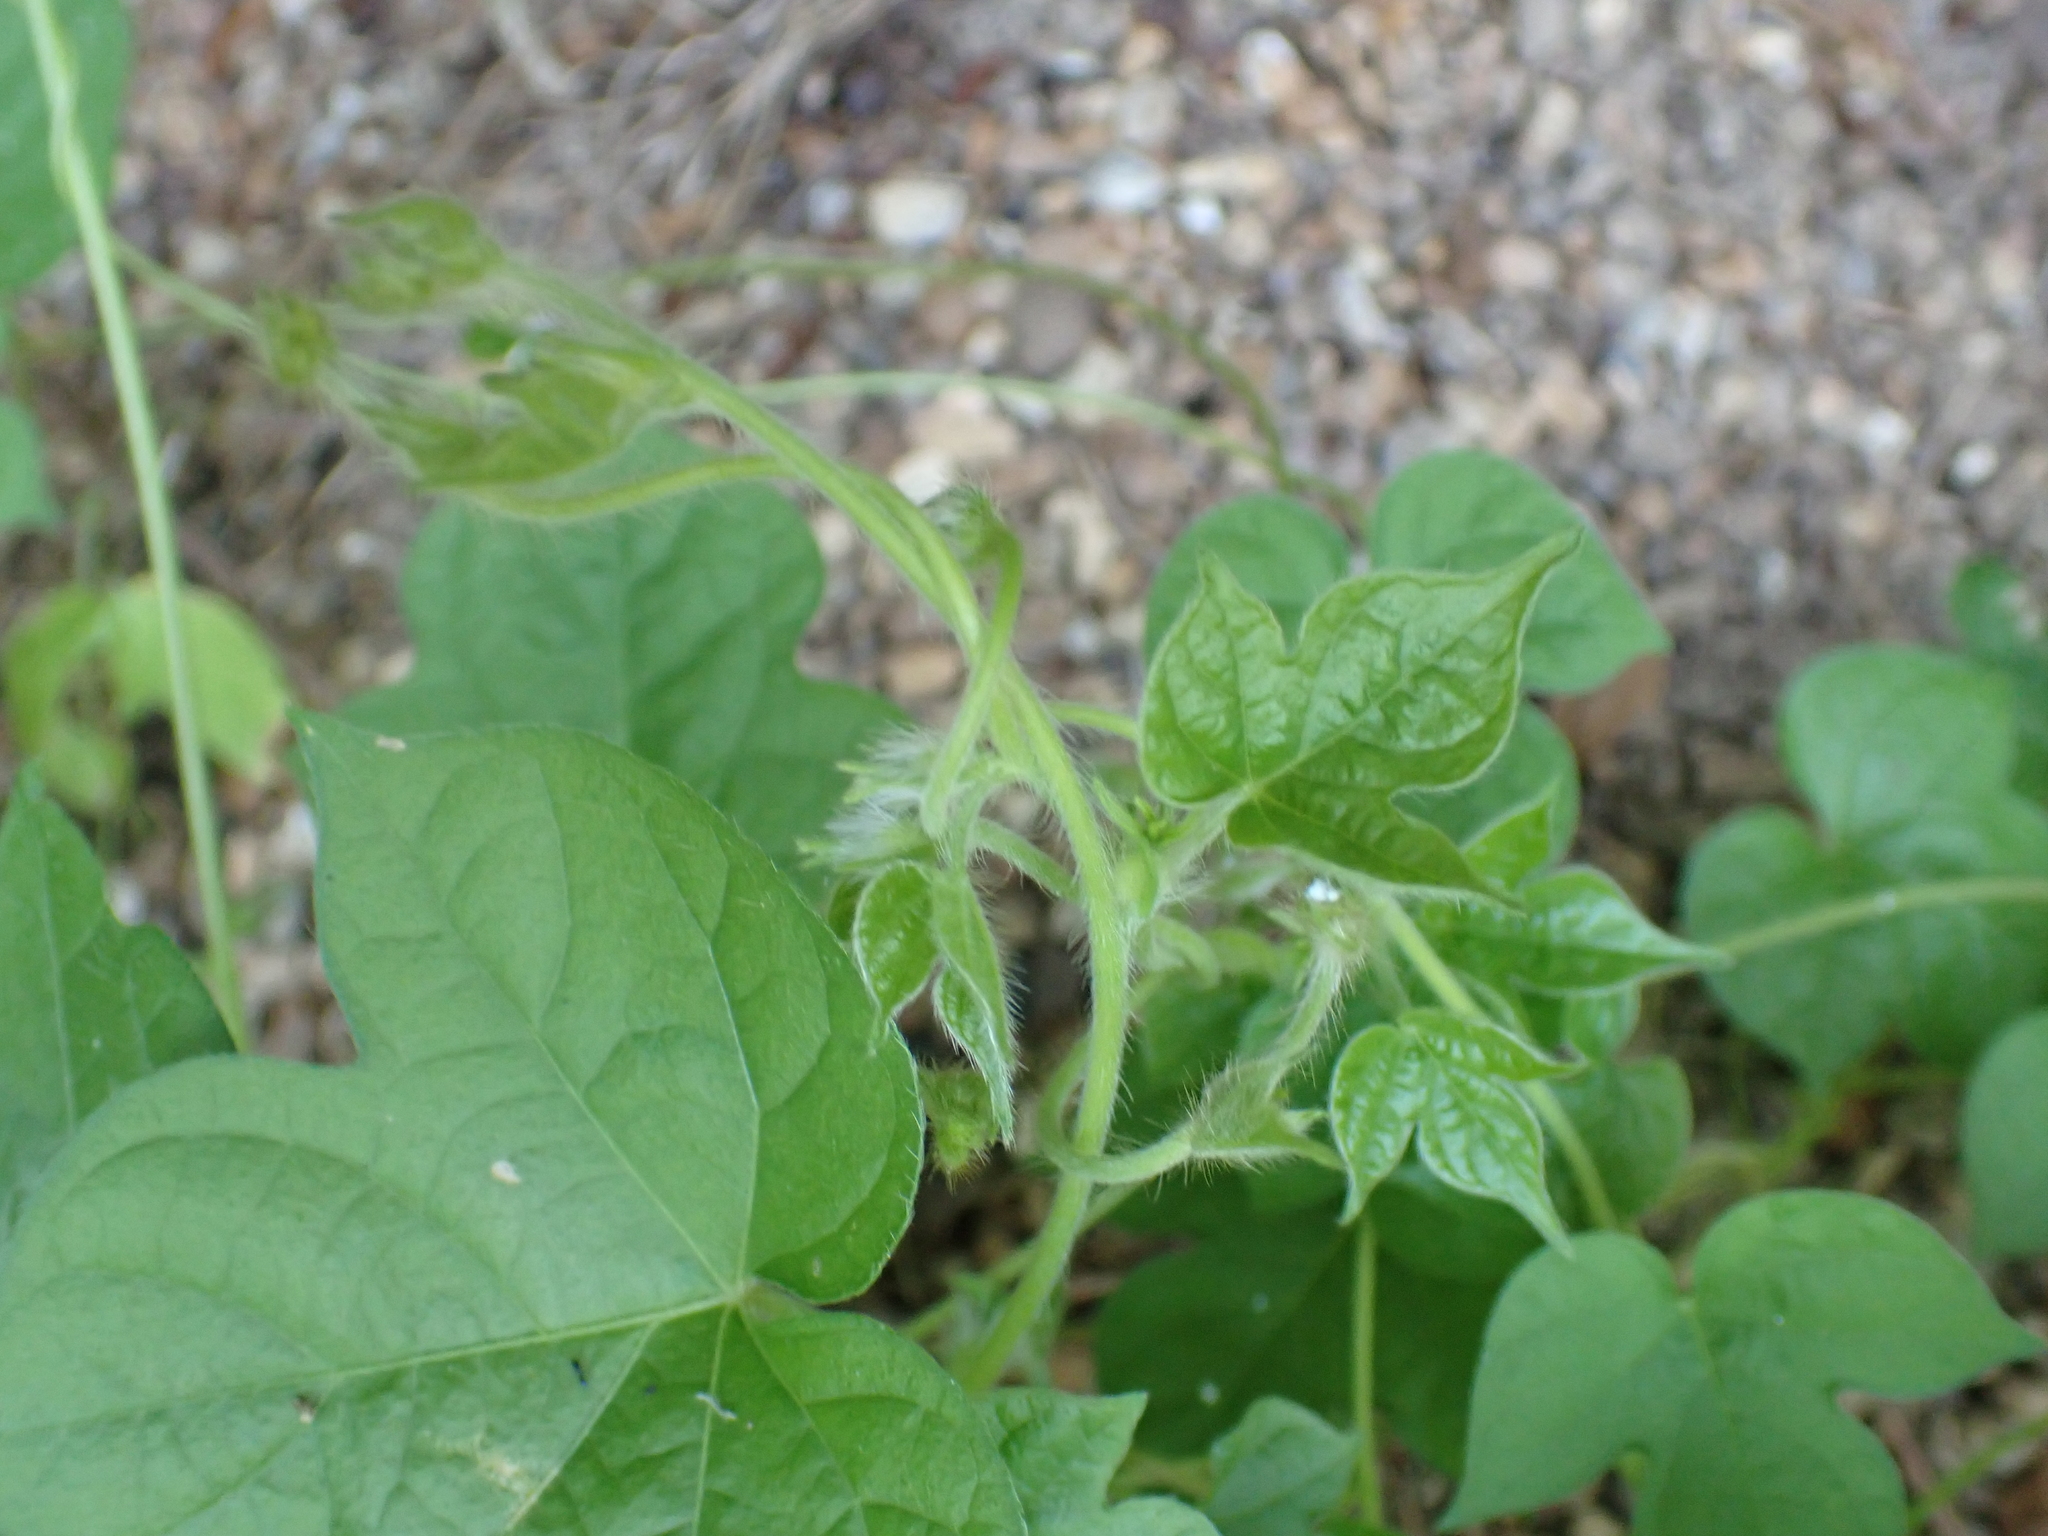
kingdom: Plantae
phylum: Tracheophyta
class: Magnoliopsida
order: Solanales
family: Convolvulaceae
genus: Ipomoea
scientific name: Ipomoea hederacea
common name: Ivy-leaved morning-glory
